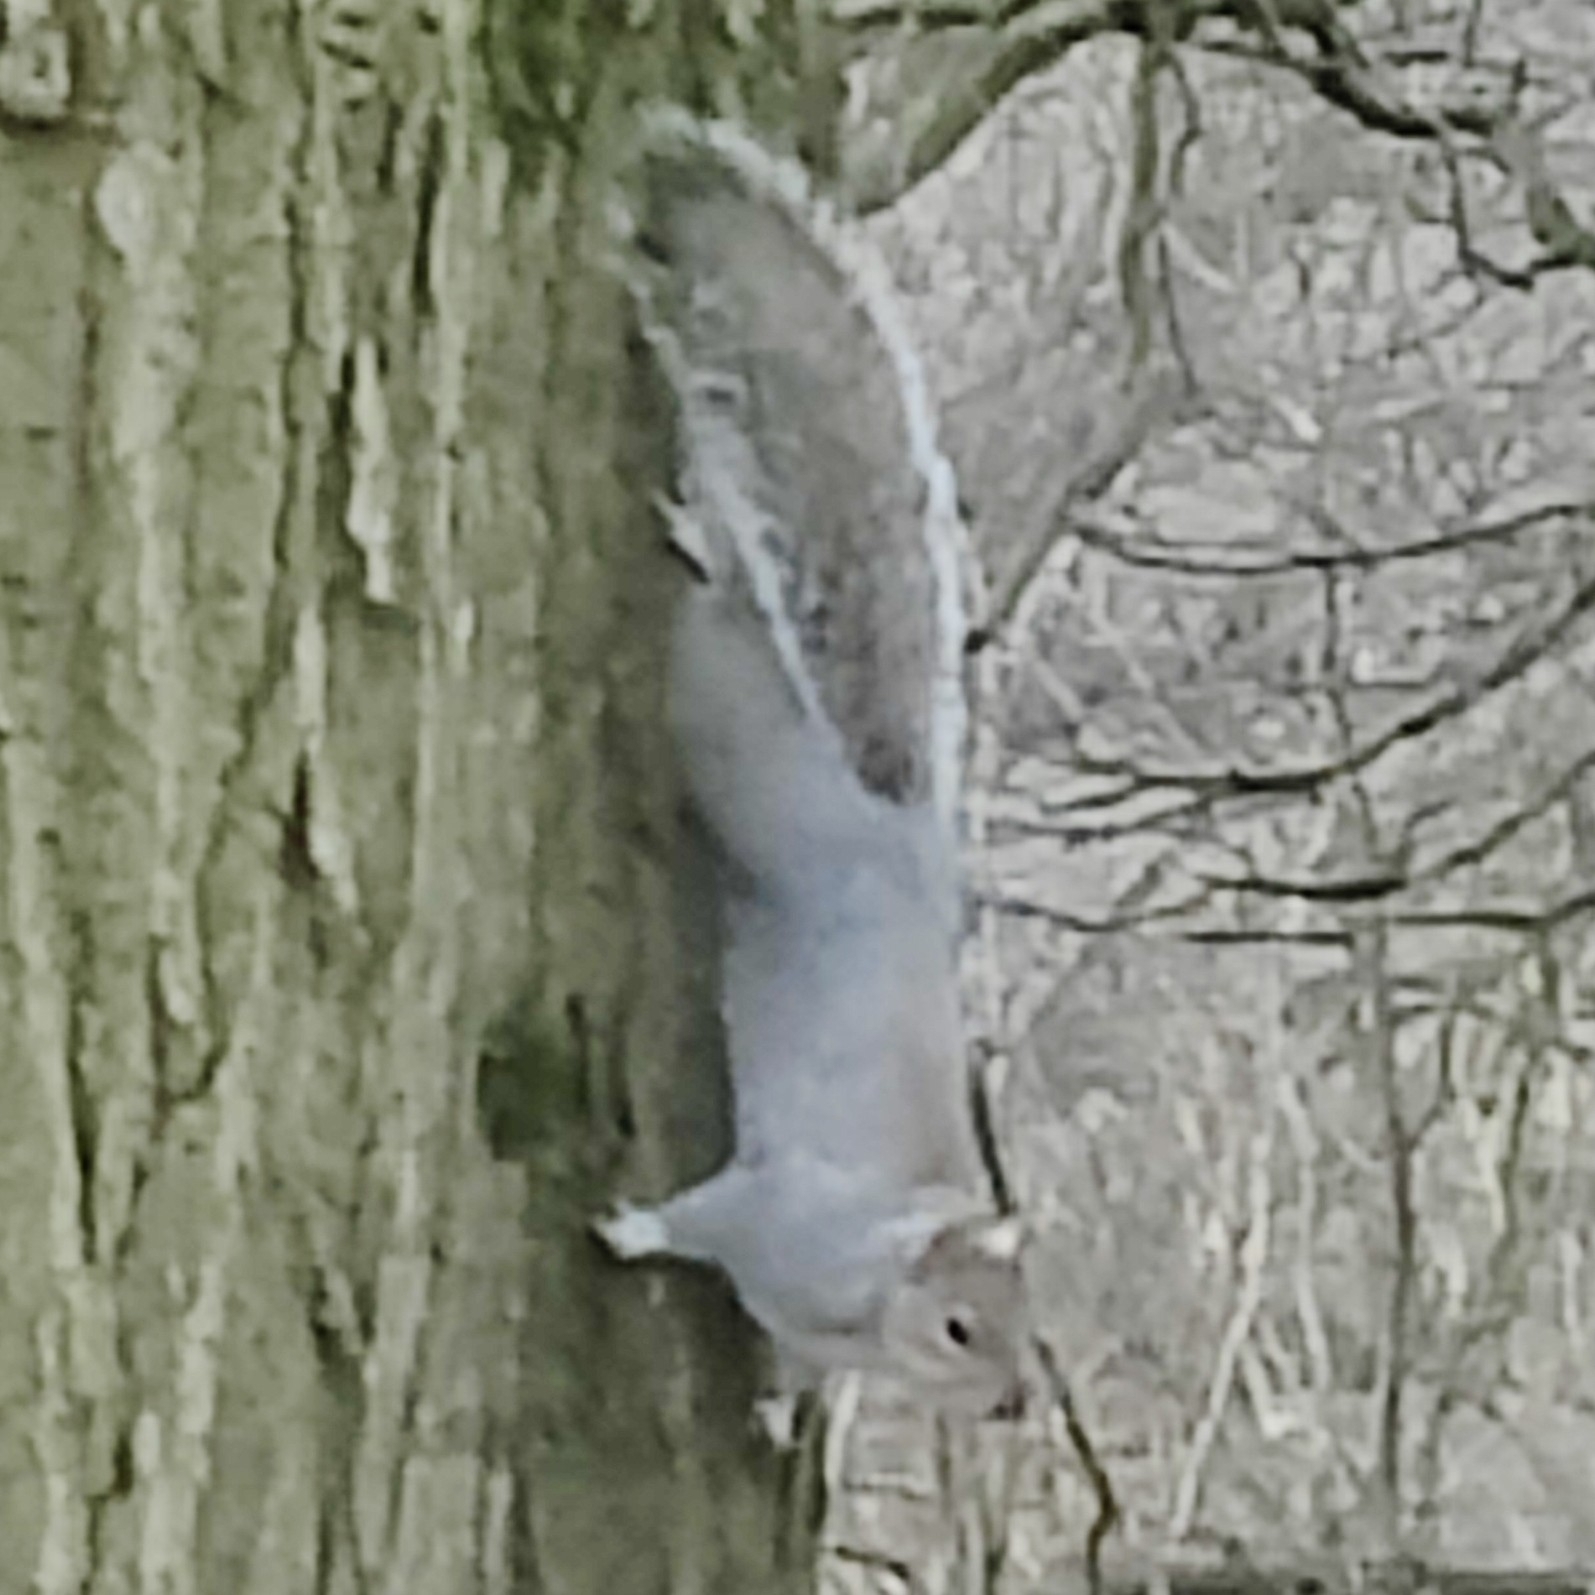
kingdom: Animalia
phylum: Chordata
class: Mammalia
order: Rodentia
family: Sciuridae
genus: Sciurus
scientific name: Sciurus carolinensis
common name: Eastern gray squirrel
